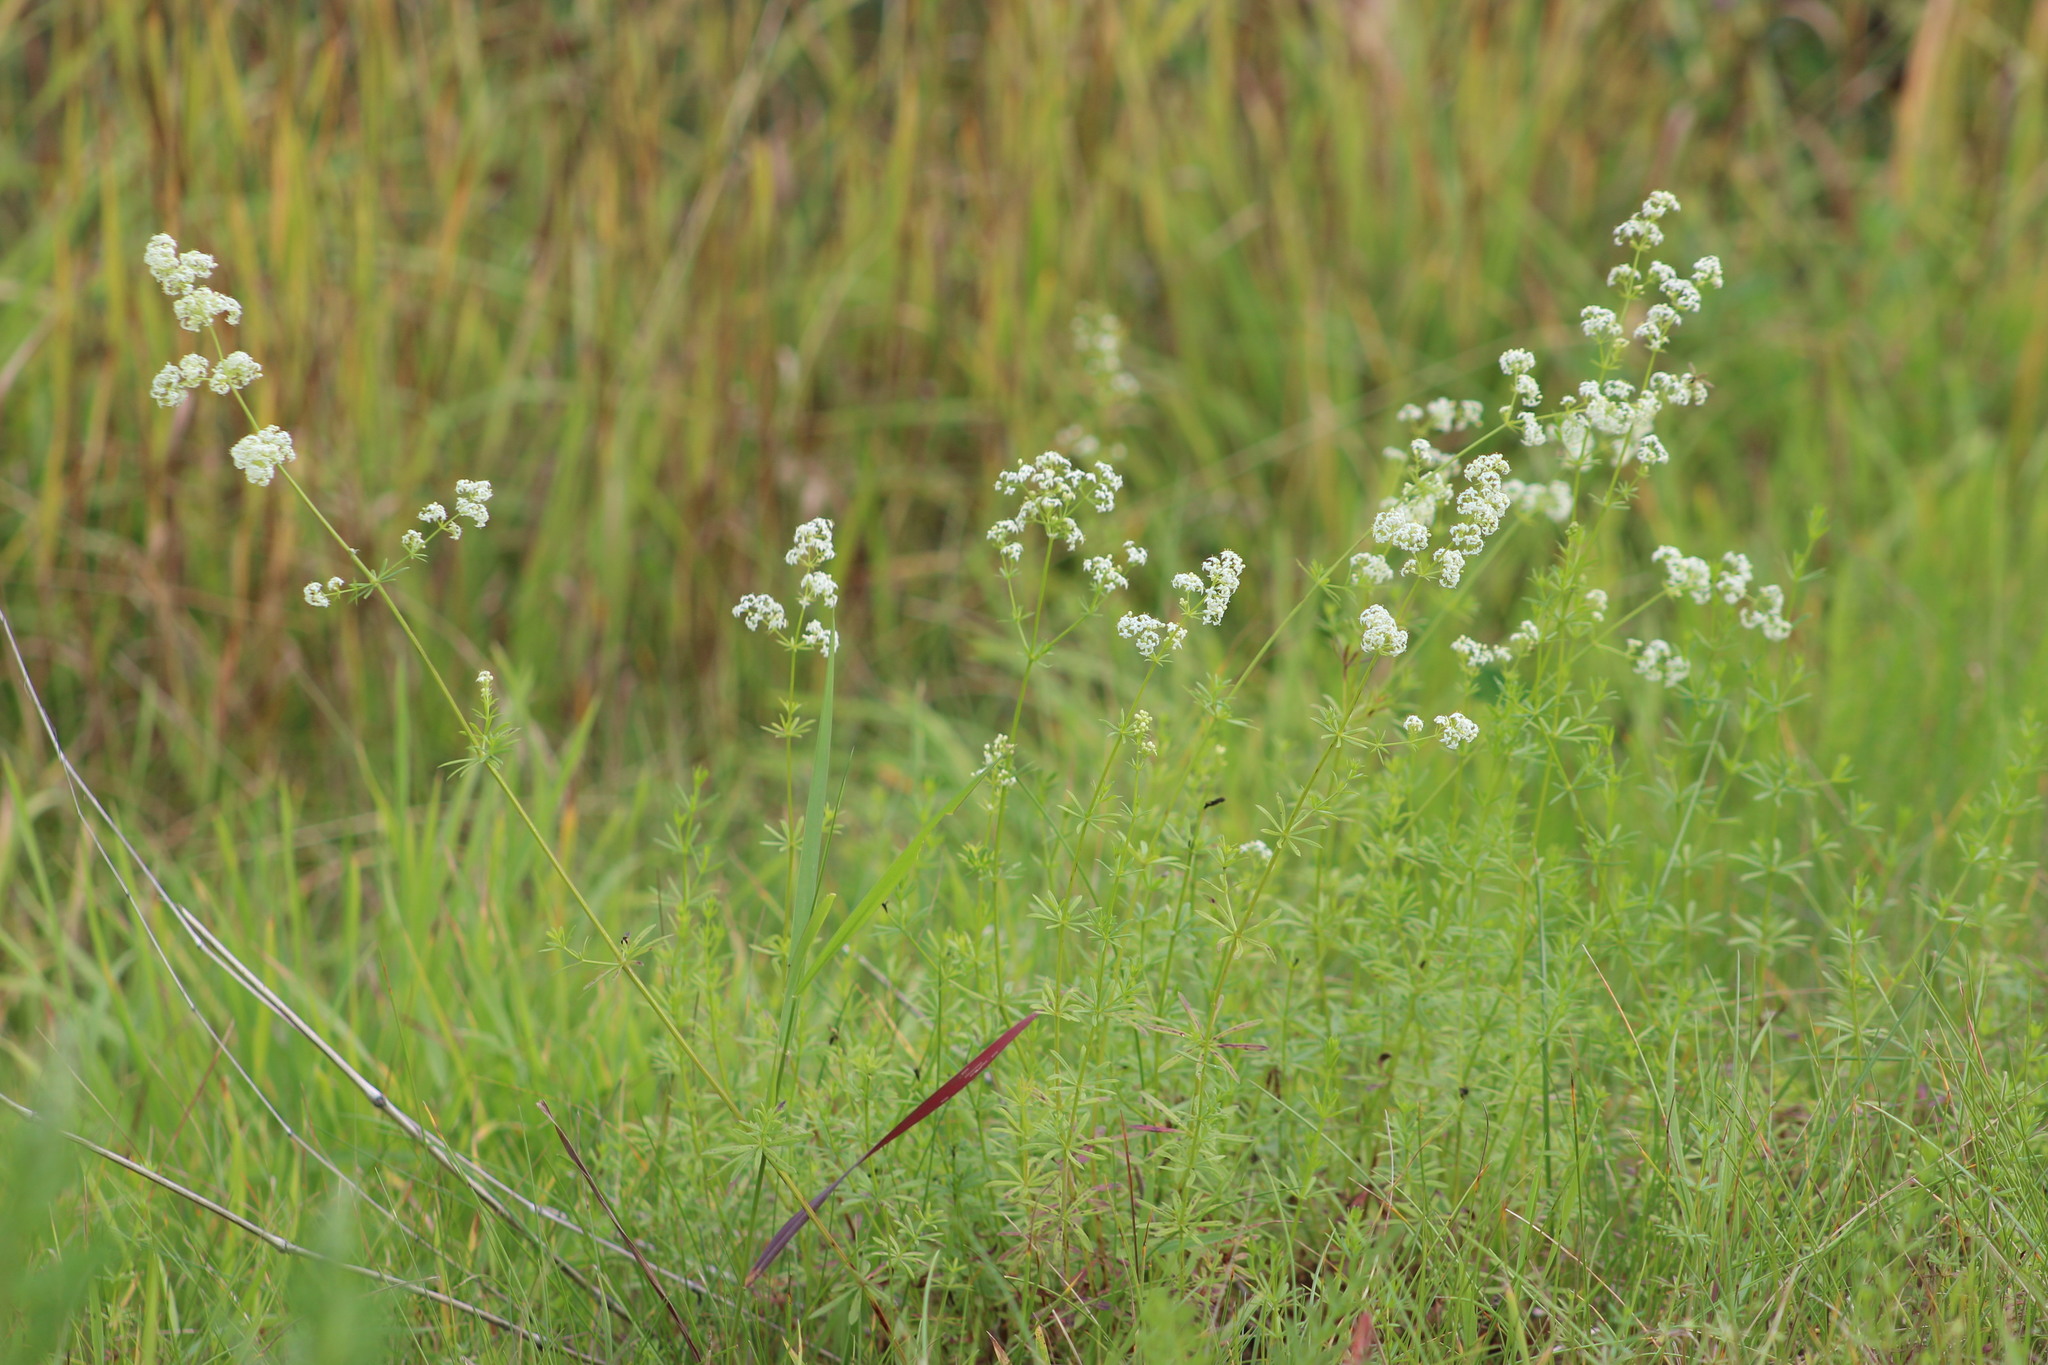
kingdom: Plantae
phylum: Tracheophyta
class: Magnoliopsida
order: Gentianales
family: Rubiaceae
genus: Galium
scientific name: Galium mollugo
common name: Hedge bedstraw
